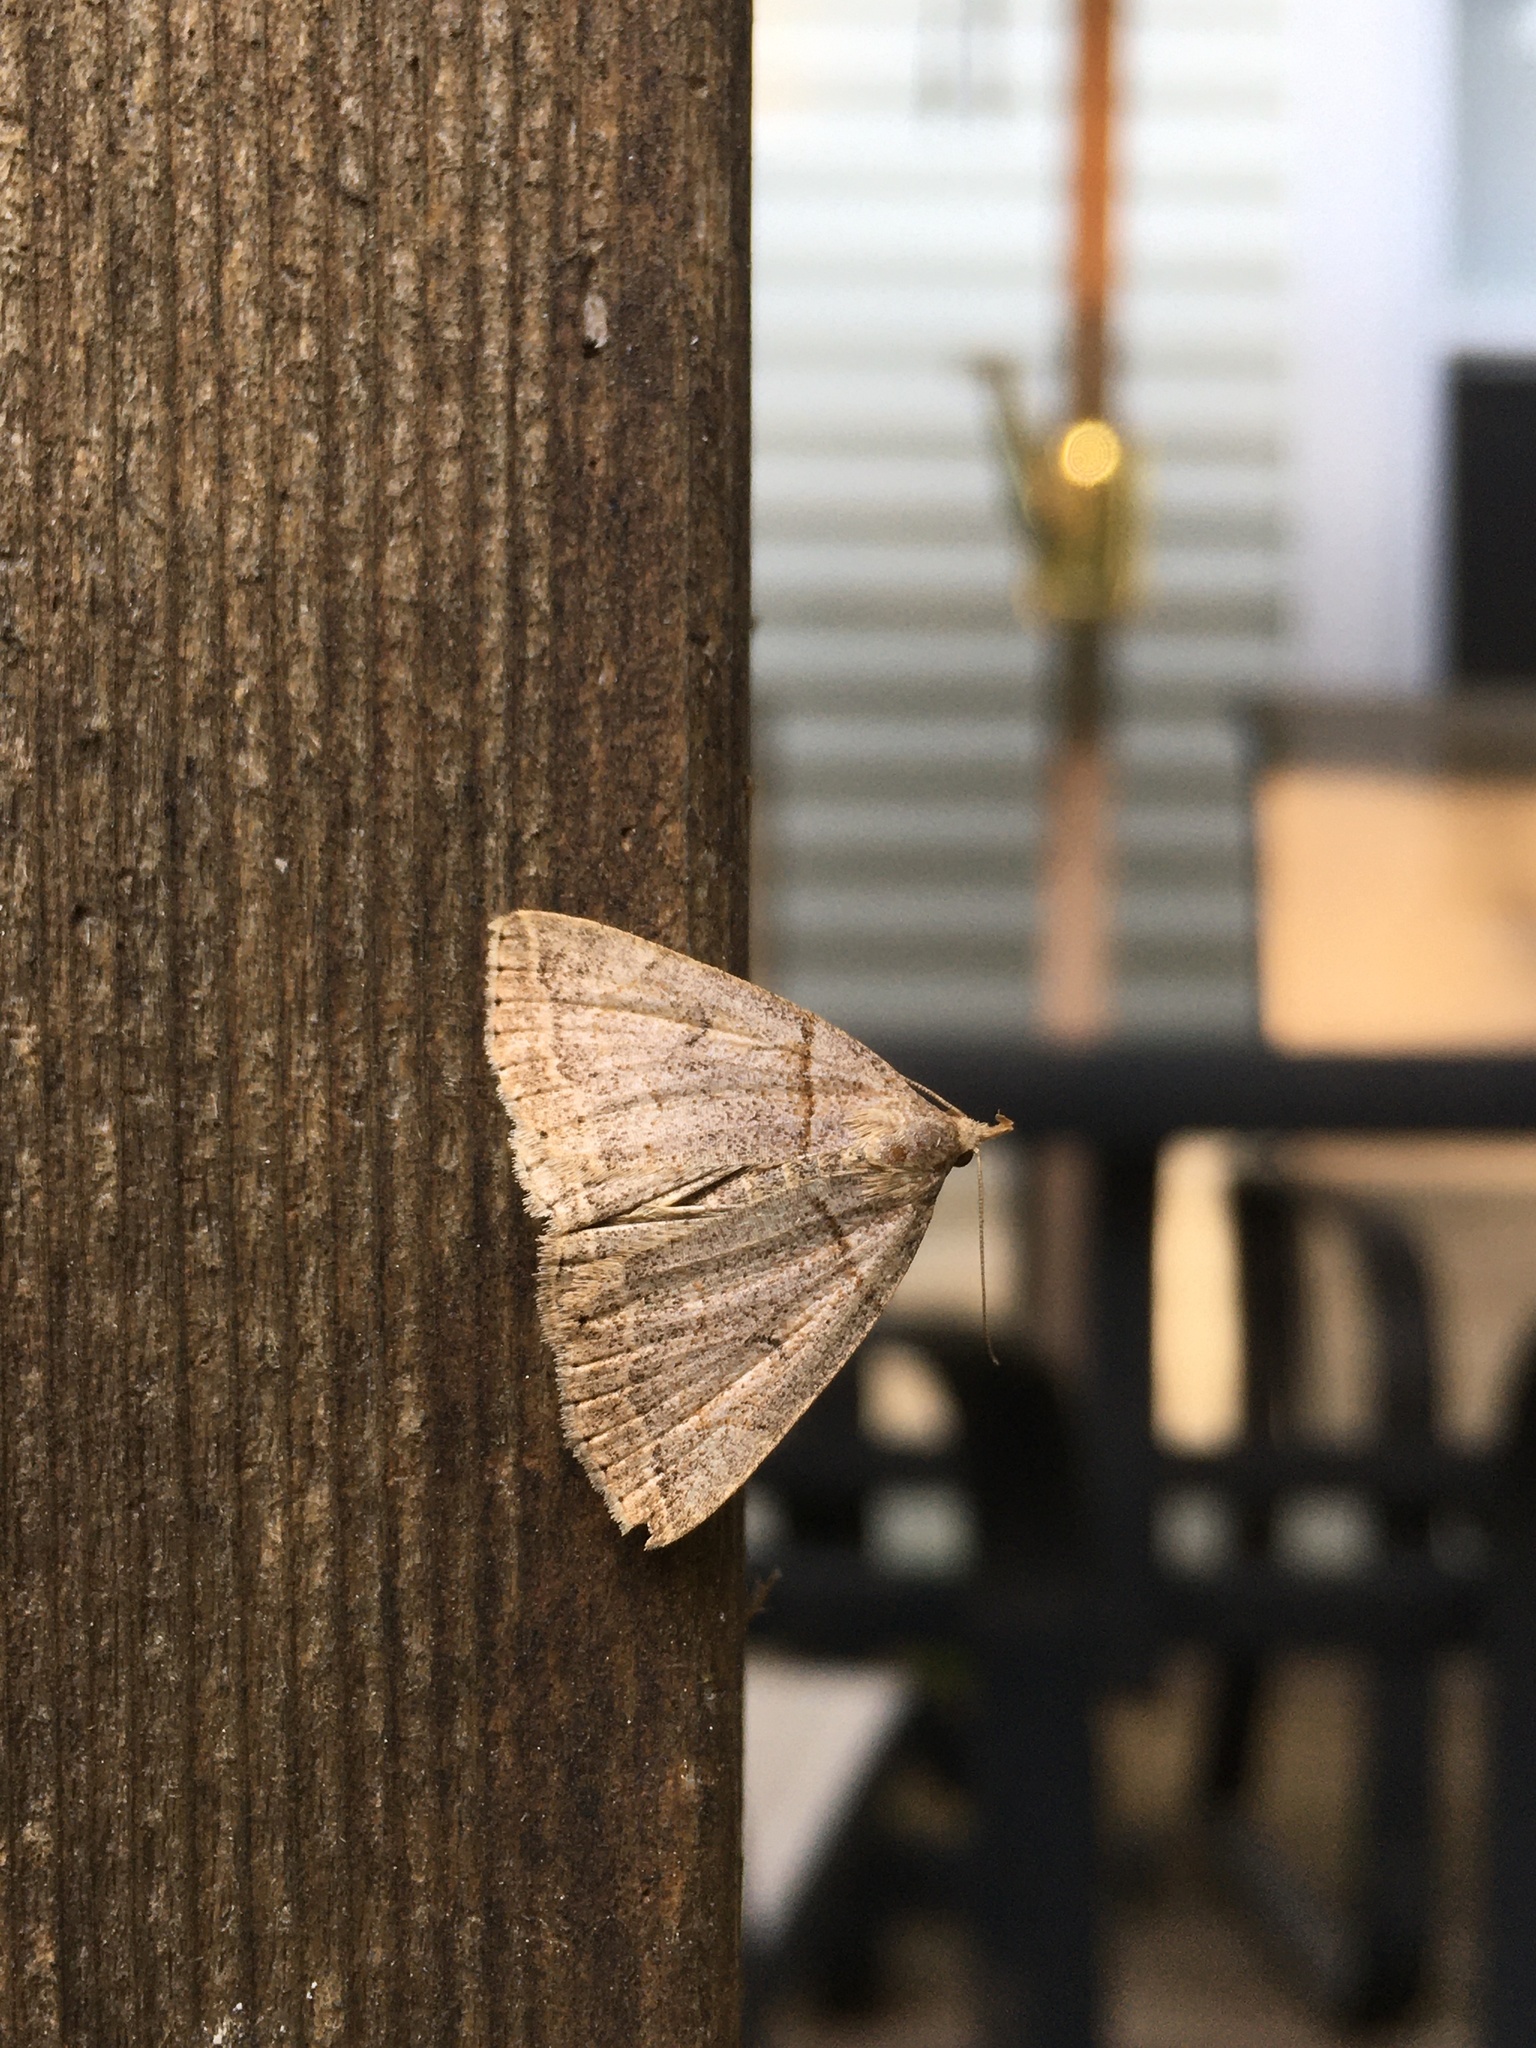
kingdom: Animalia
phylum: Arthropoda
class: Insecta
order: Lepidoptera
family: Erebidae
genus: Zanclognatha
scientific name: Zanclognatha laevigata
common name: Variable fan-foot
